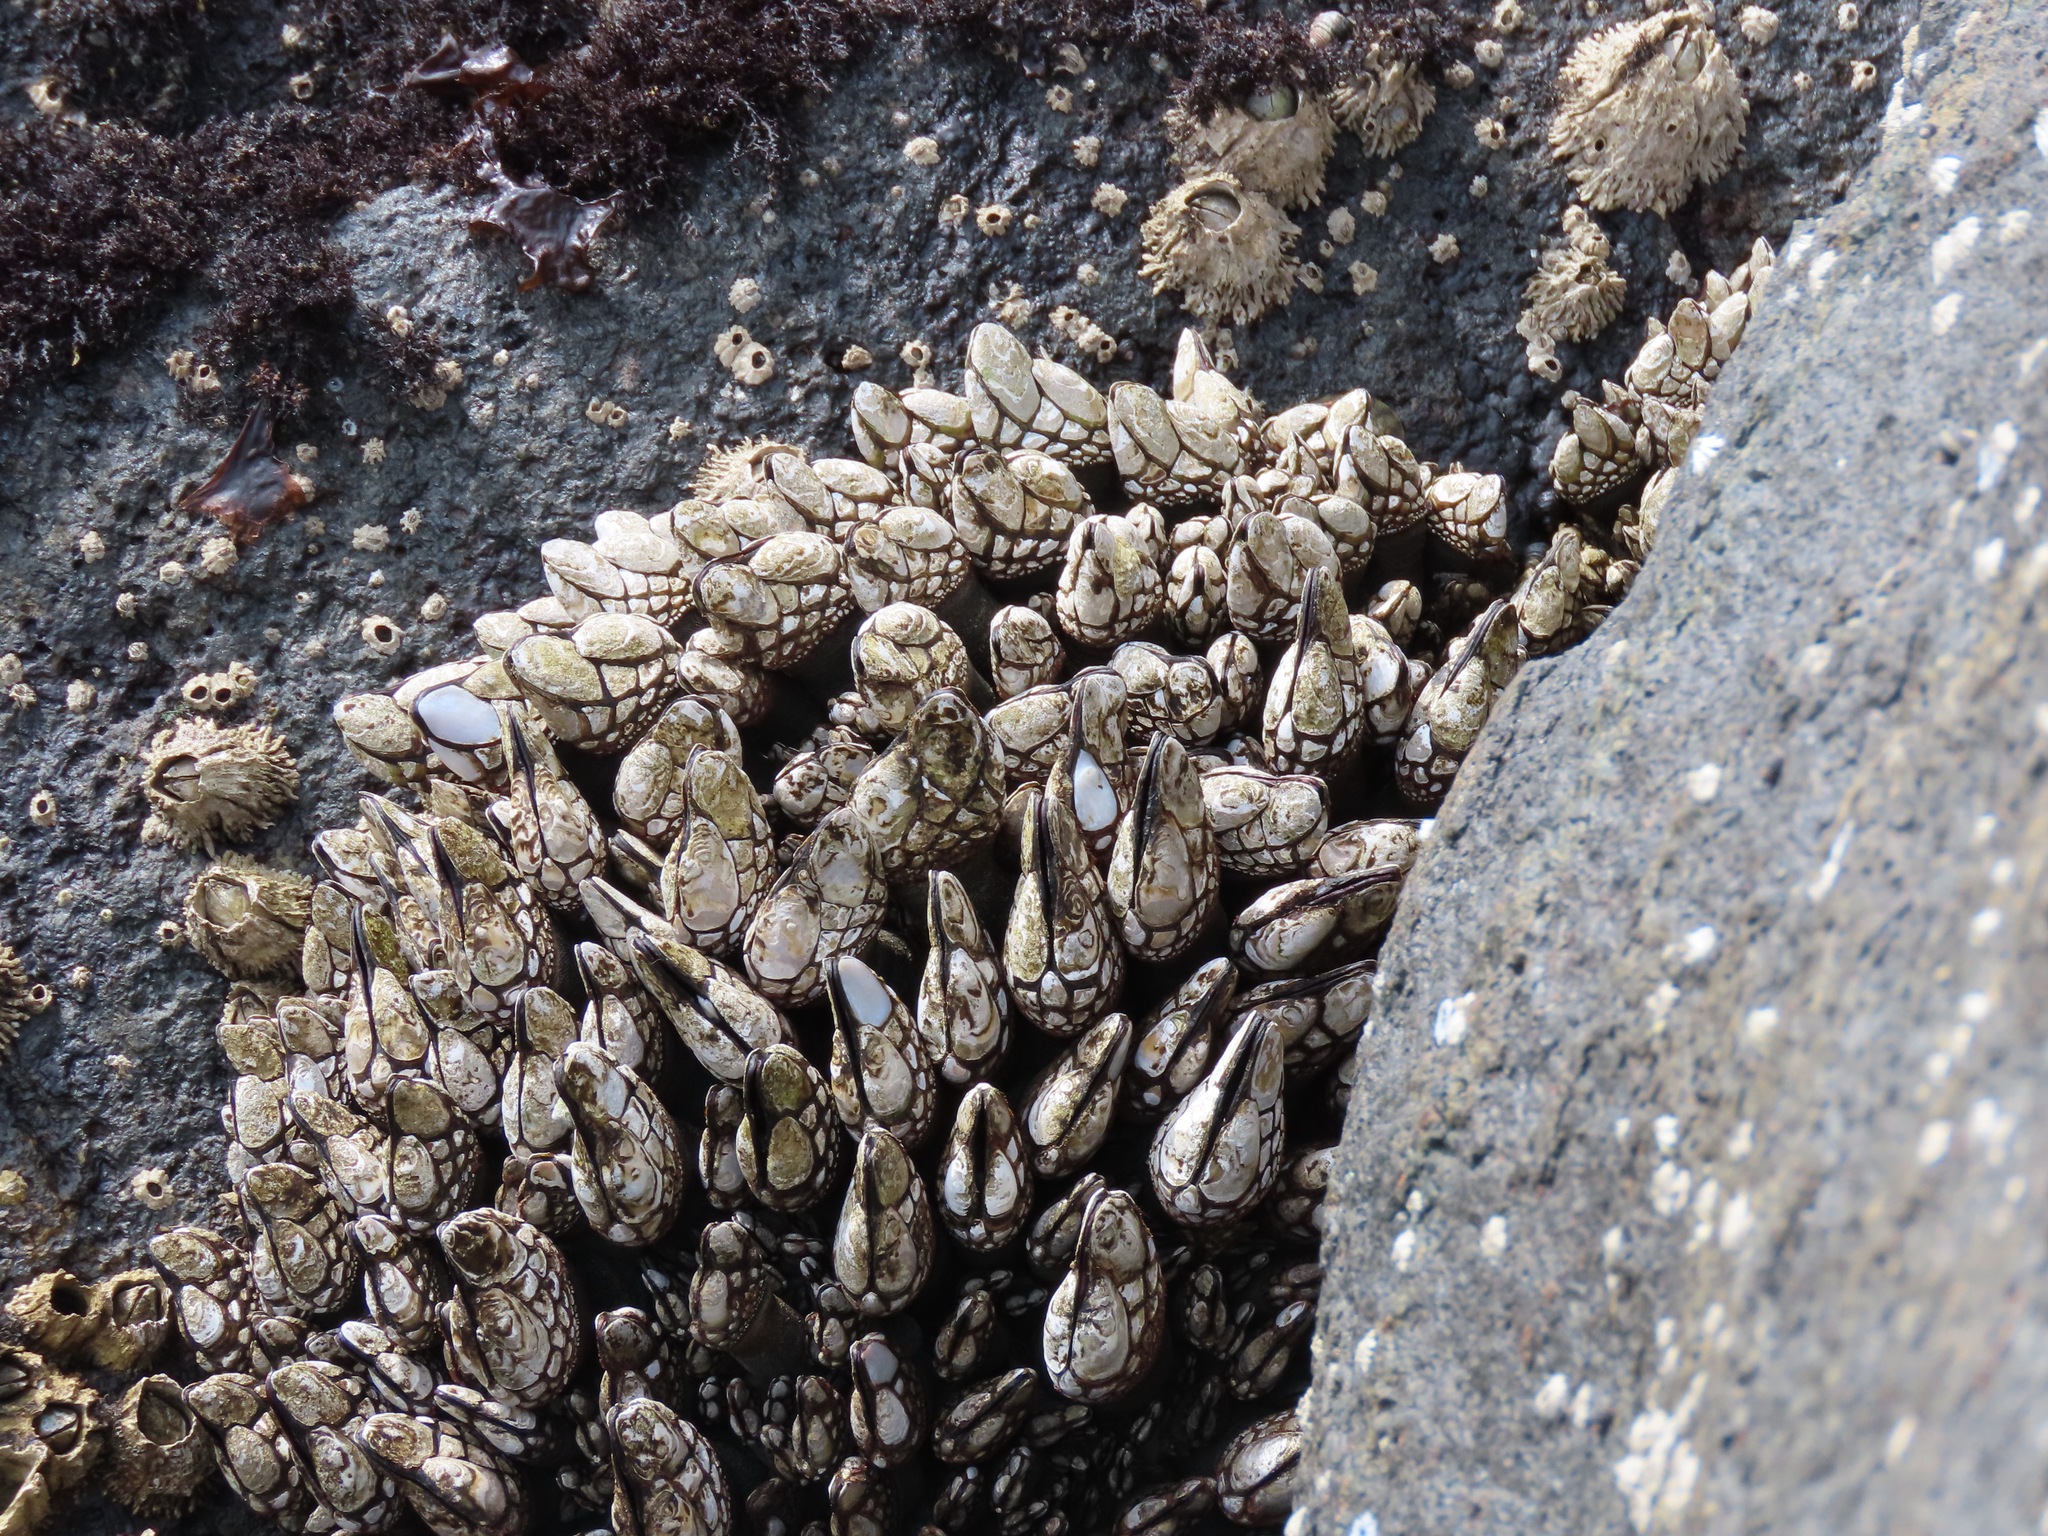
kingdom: Animalia
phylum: Arthropoda
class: Maxillopoda
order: Pedunculata
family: Pollicipedidae
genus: Pollicipes
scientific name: Pollicipes polymerus
